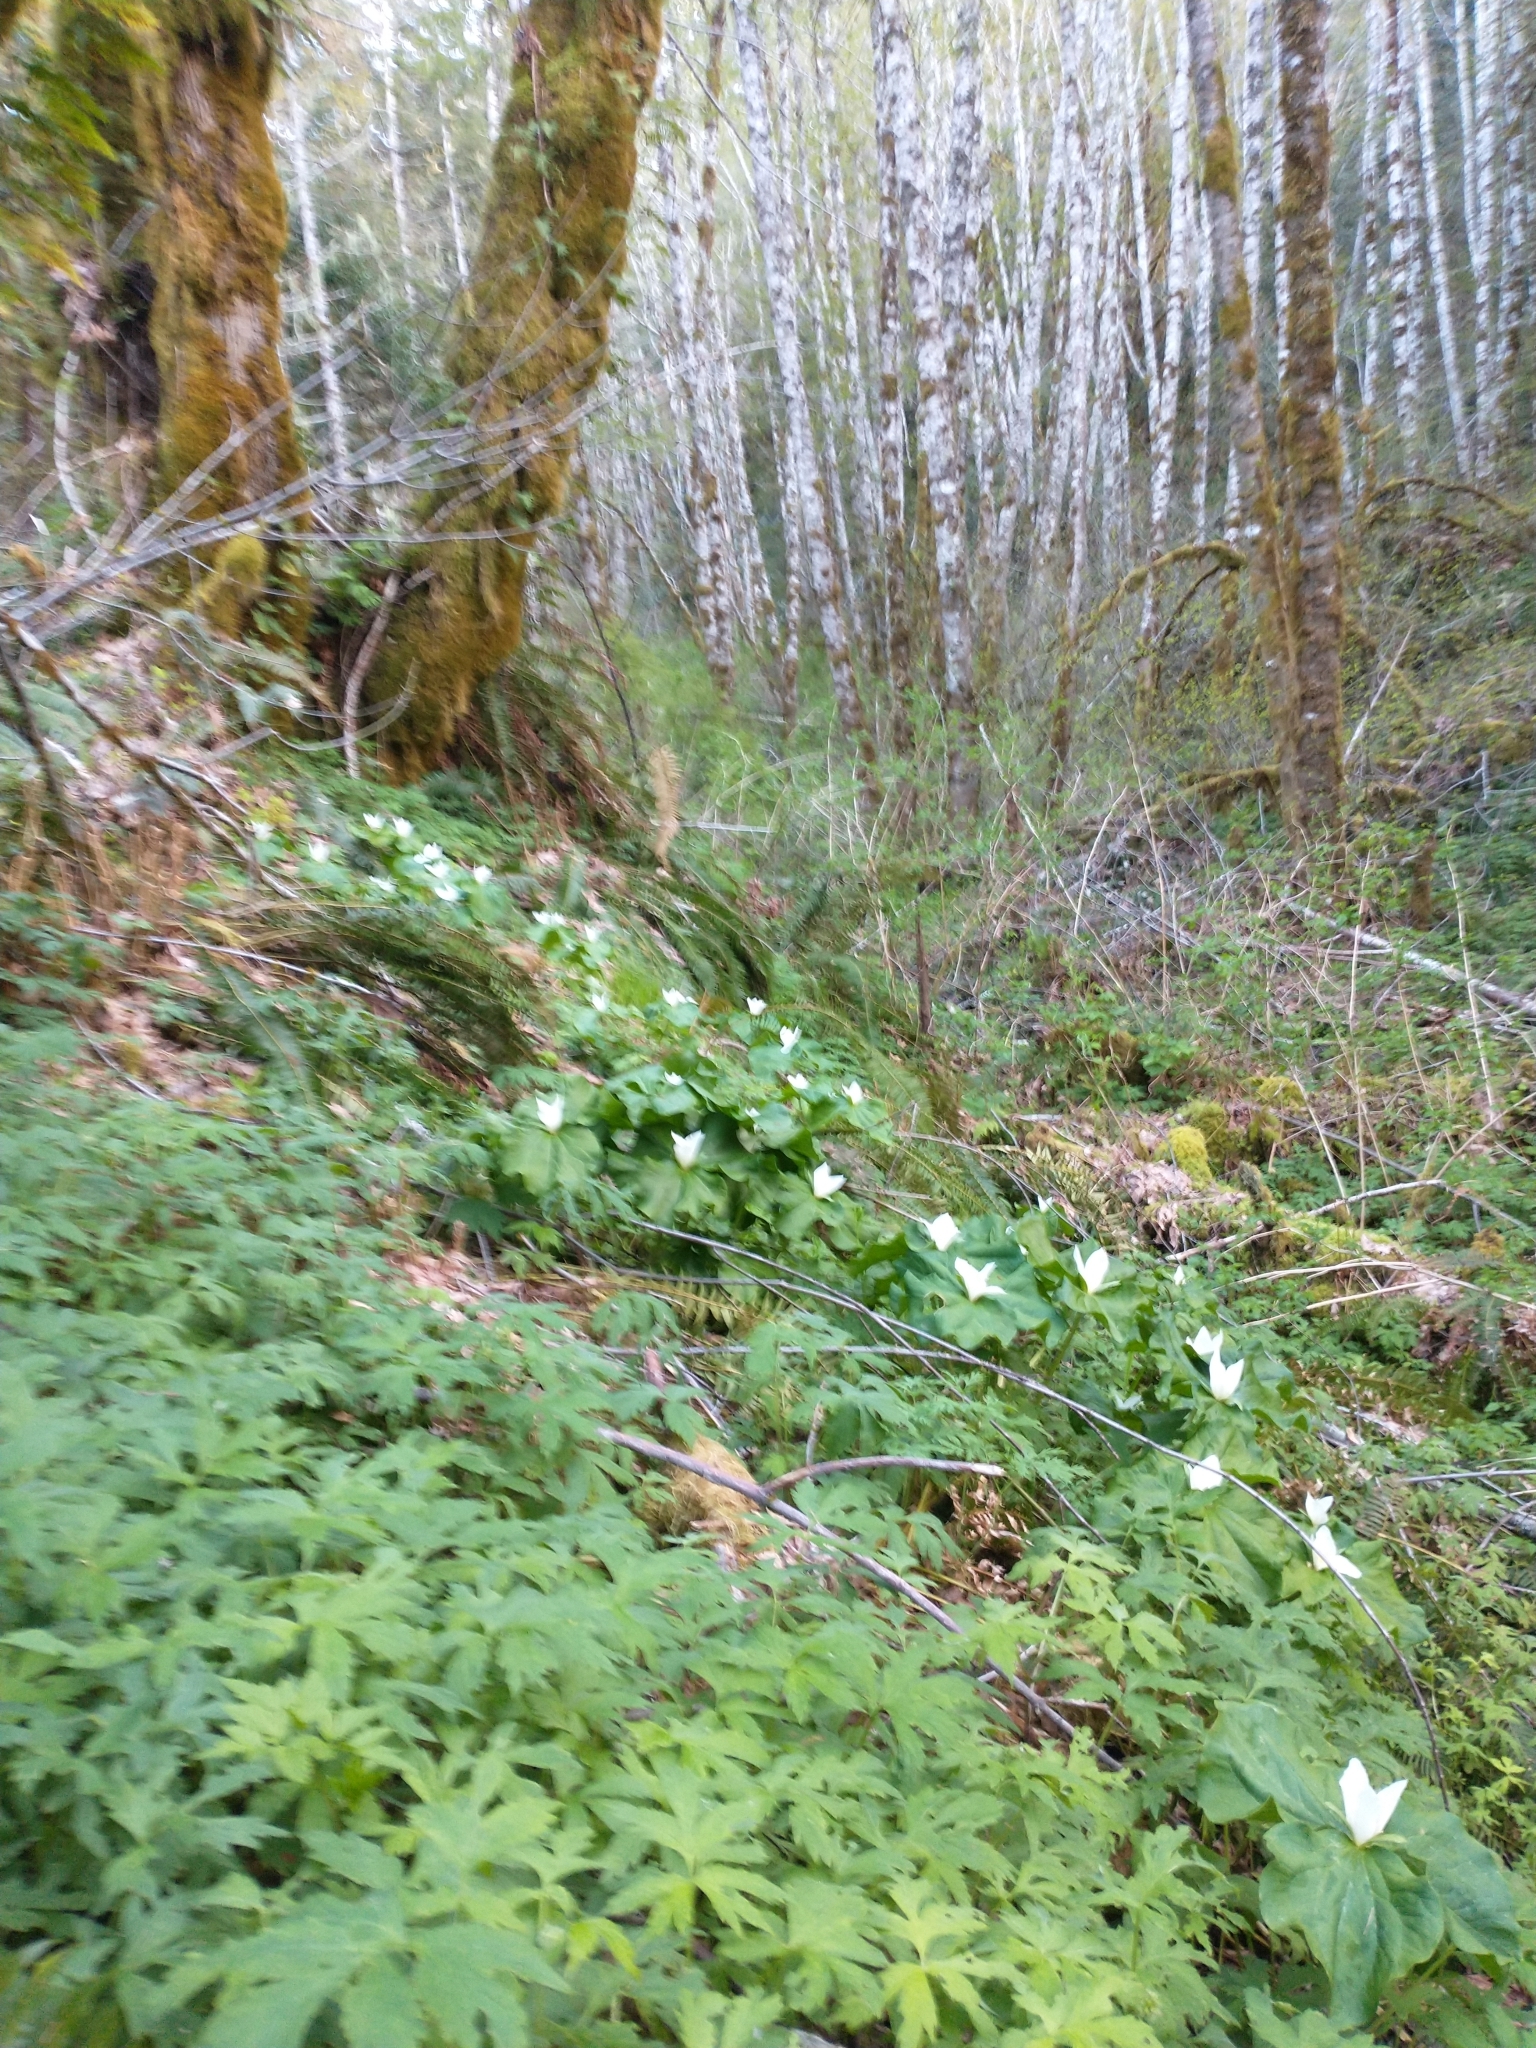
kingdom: Plantae
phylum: Tracheophyta
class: Liliopsida
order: Liliales
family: Melanthiaceae
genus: Trillium
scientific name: Trillium albidum
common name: Freeman's trillium
